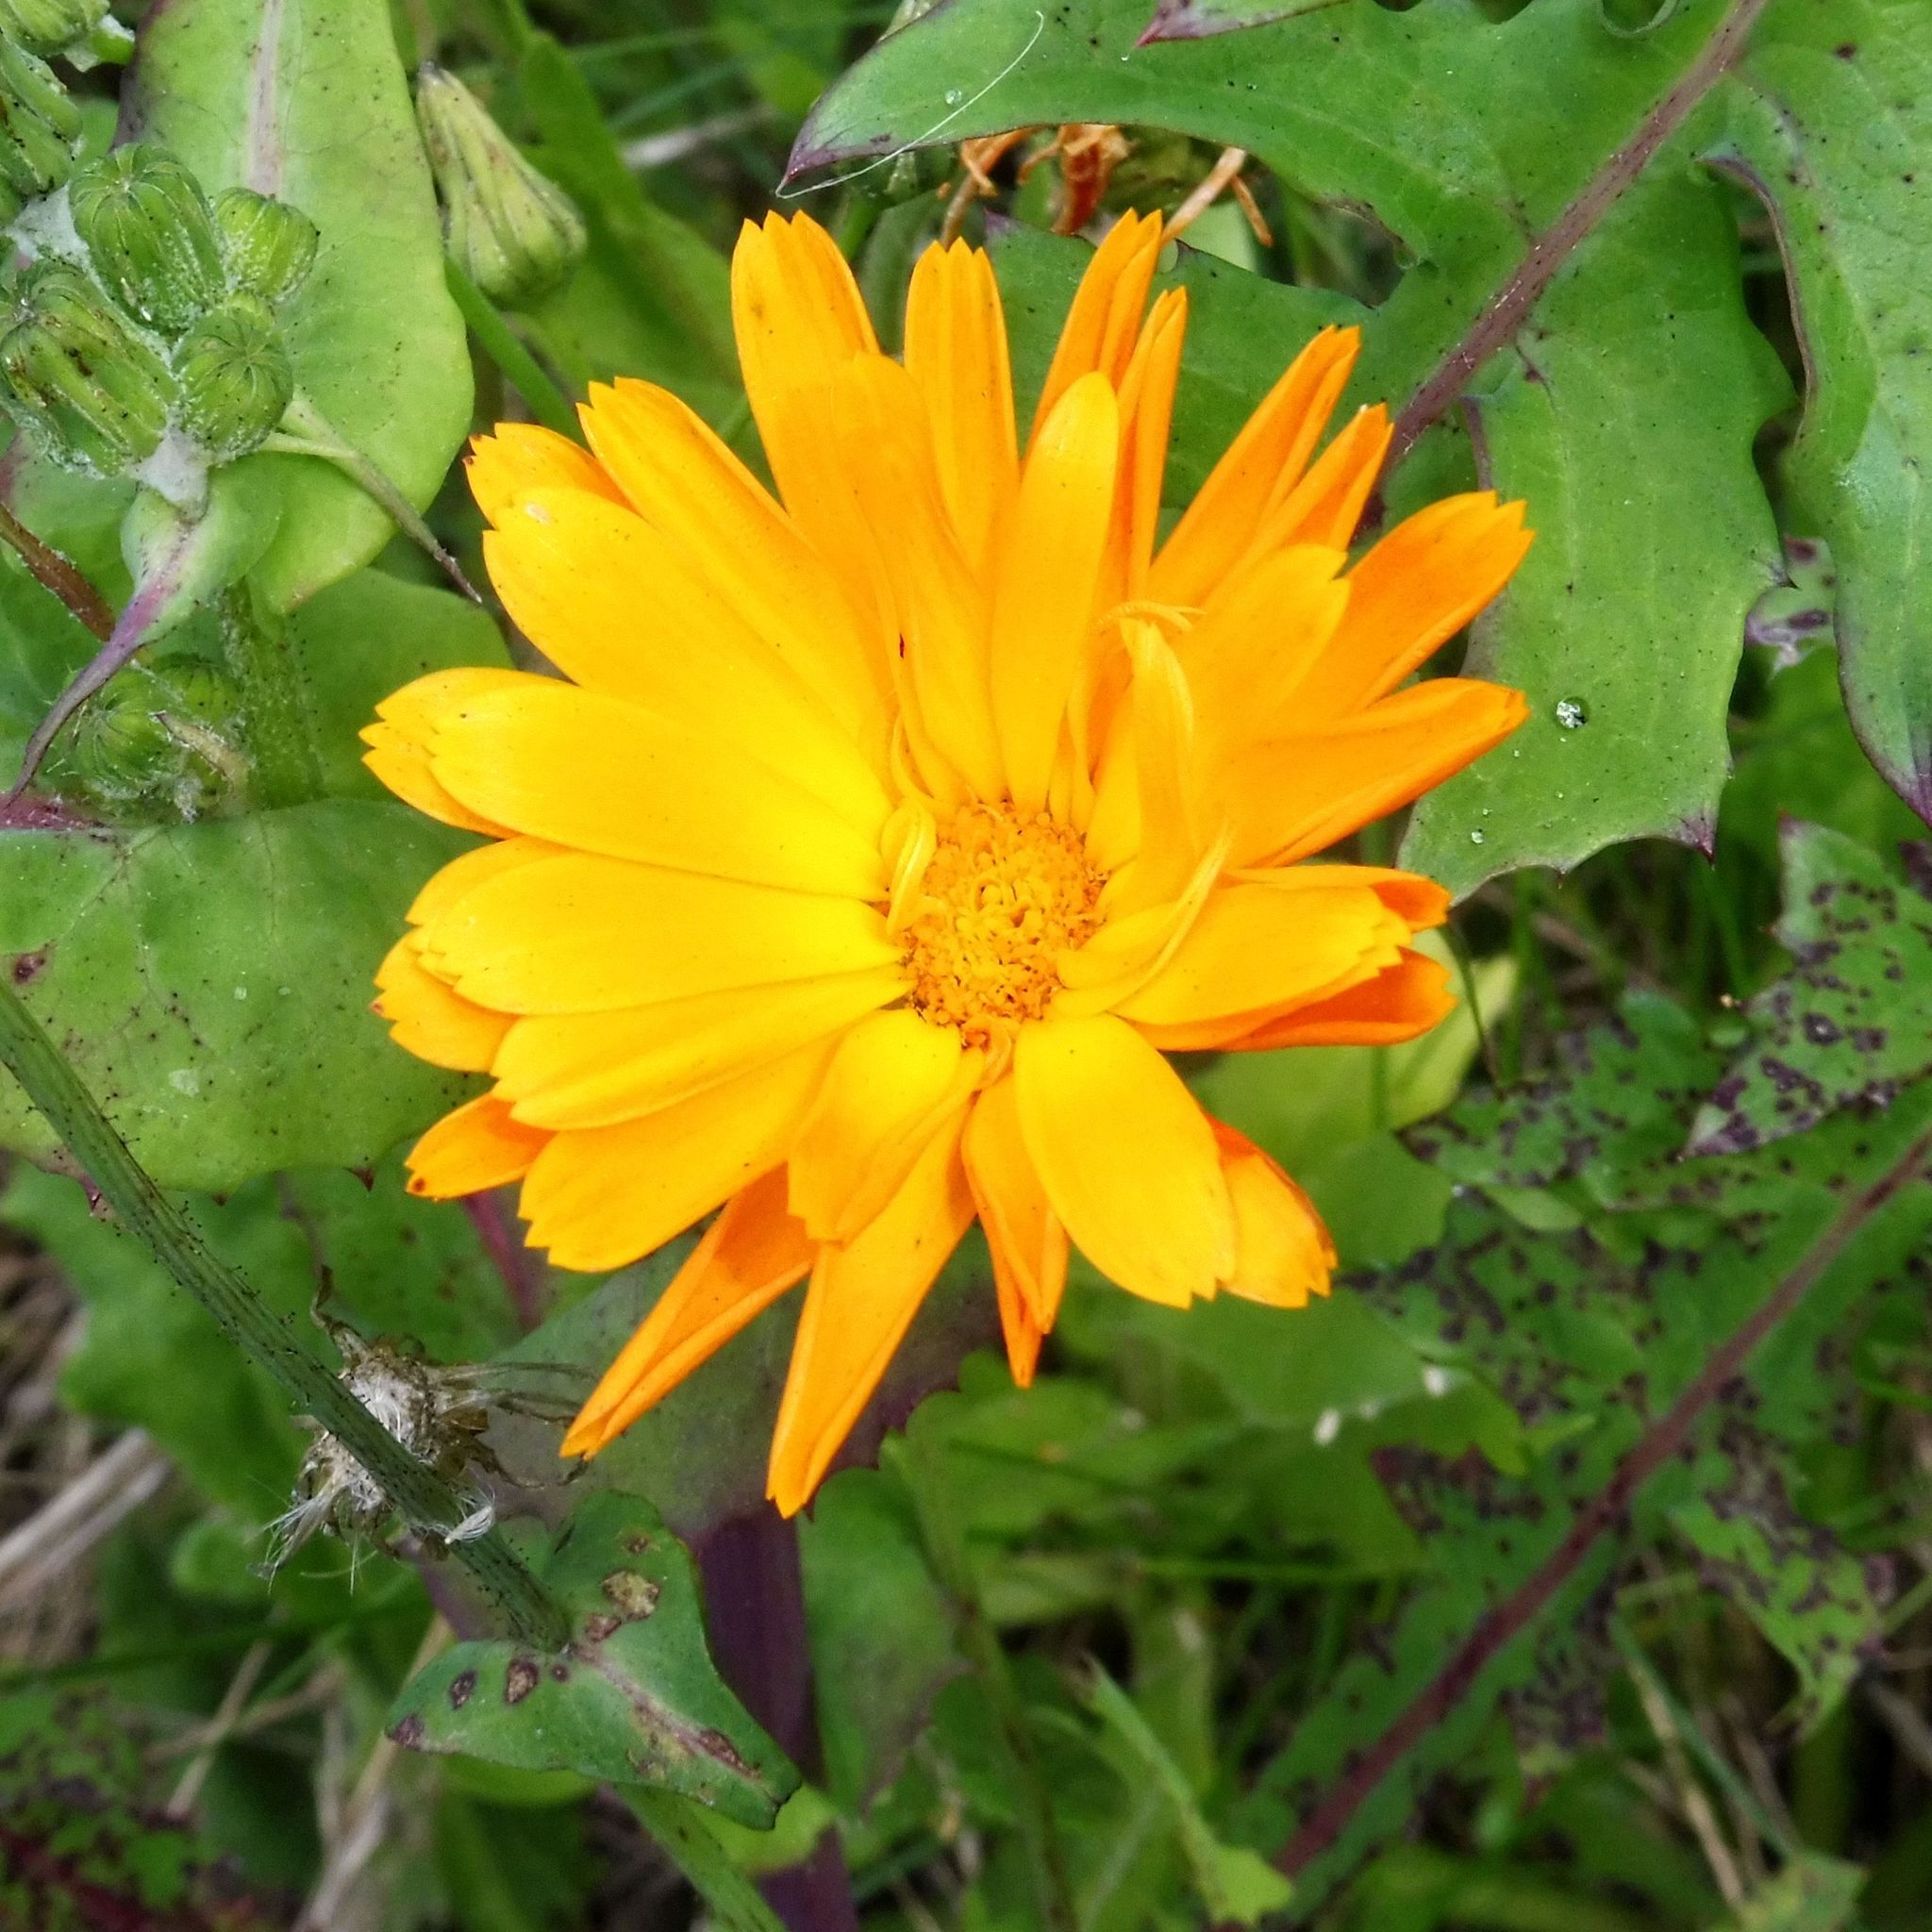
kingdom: Plantae
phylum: Tracheophyta
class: Magnoliopsida
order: Asterales
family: Asteraceae
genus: Calendula
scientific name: Calendula officinalis
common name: Pot marigold
